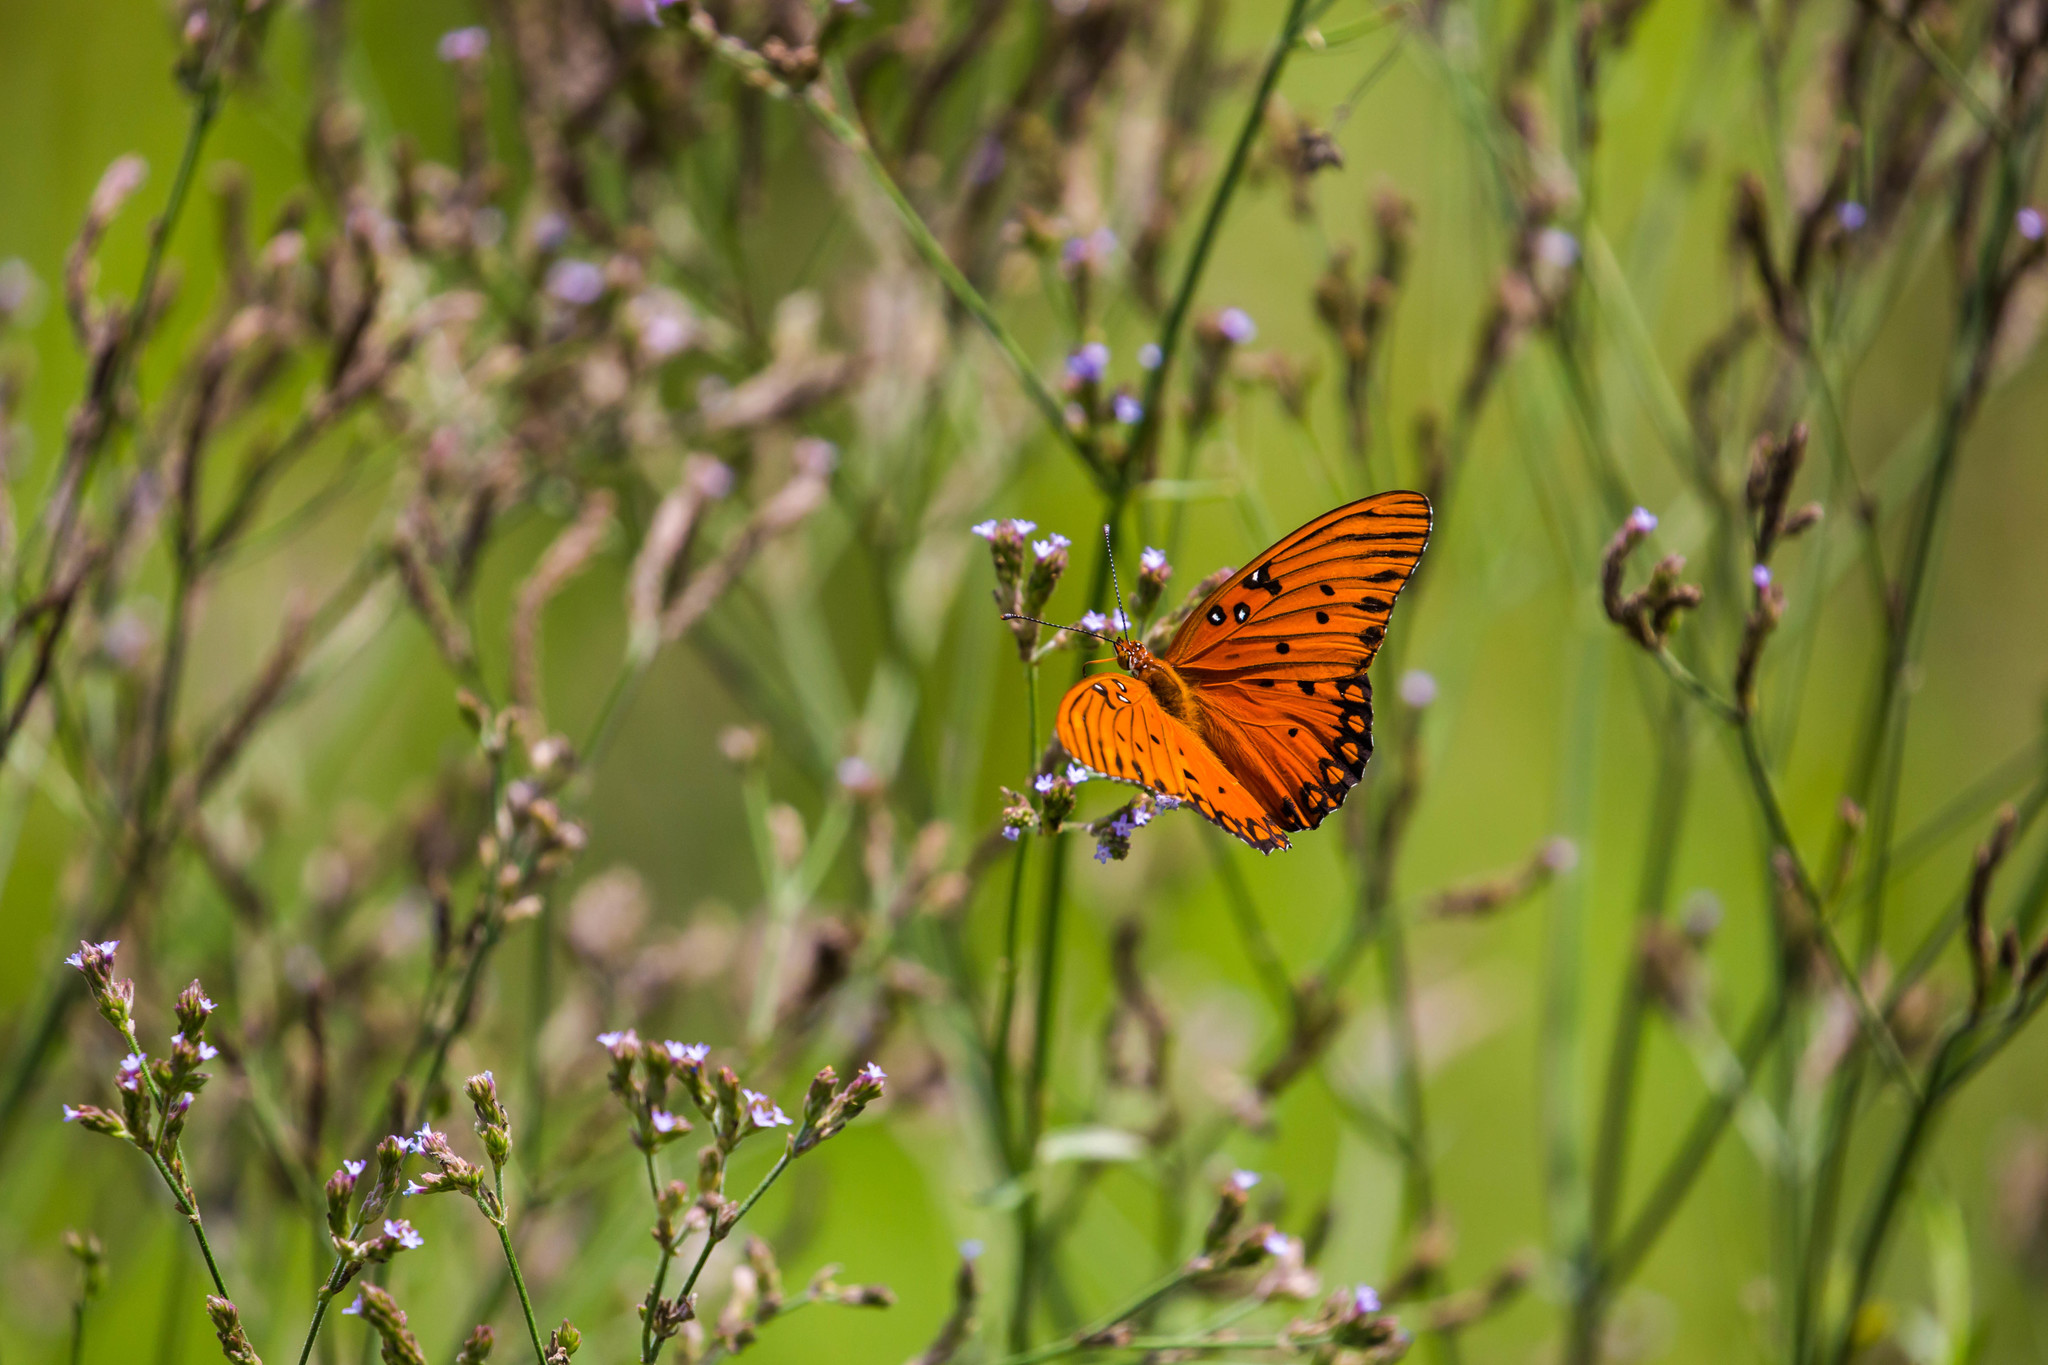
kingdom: Animalia
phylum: Arthropoda
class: Insecta
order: Lepidoptera
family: Nymphalidae
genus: Dione
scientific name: Dione vanillae
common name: Gulf fritillary
